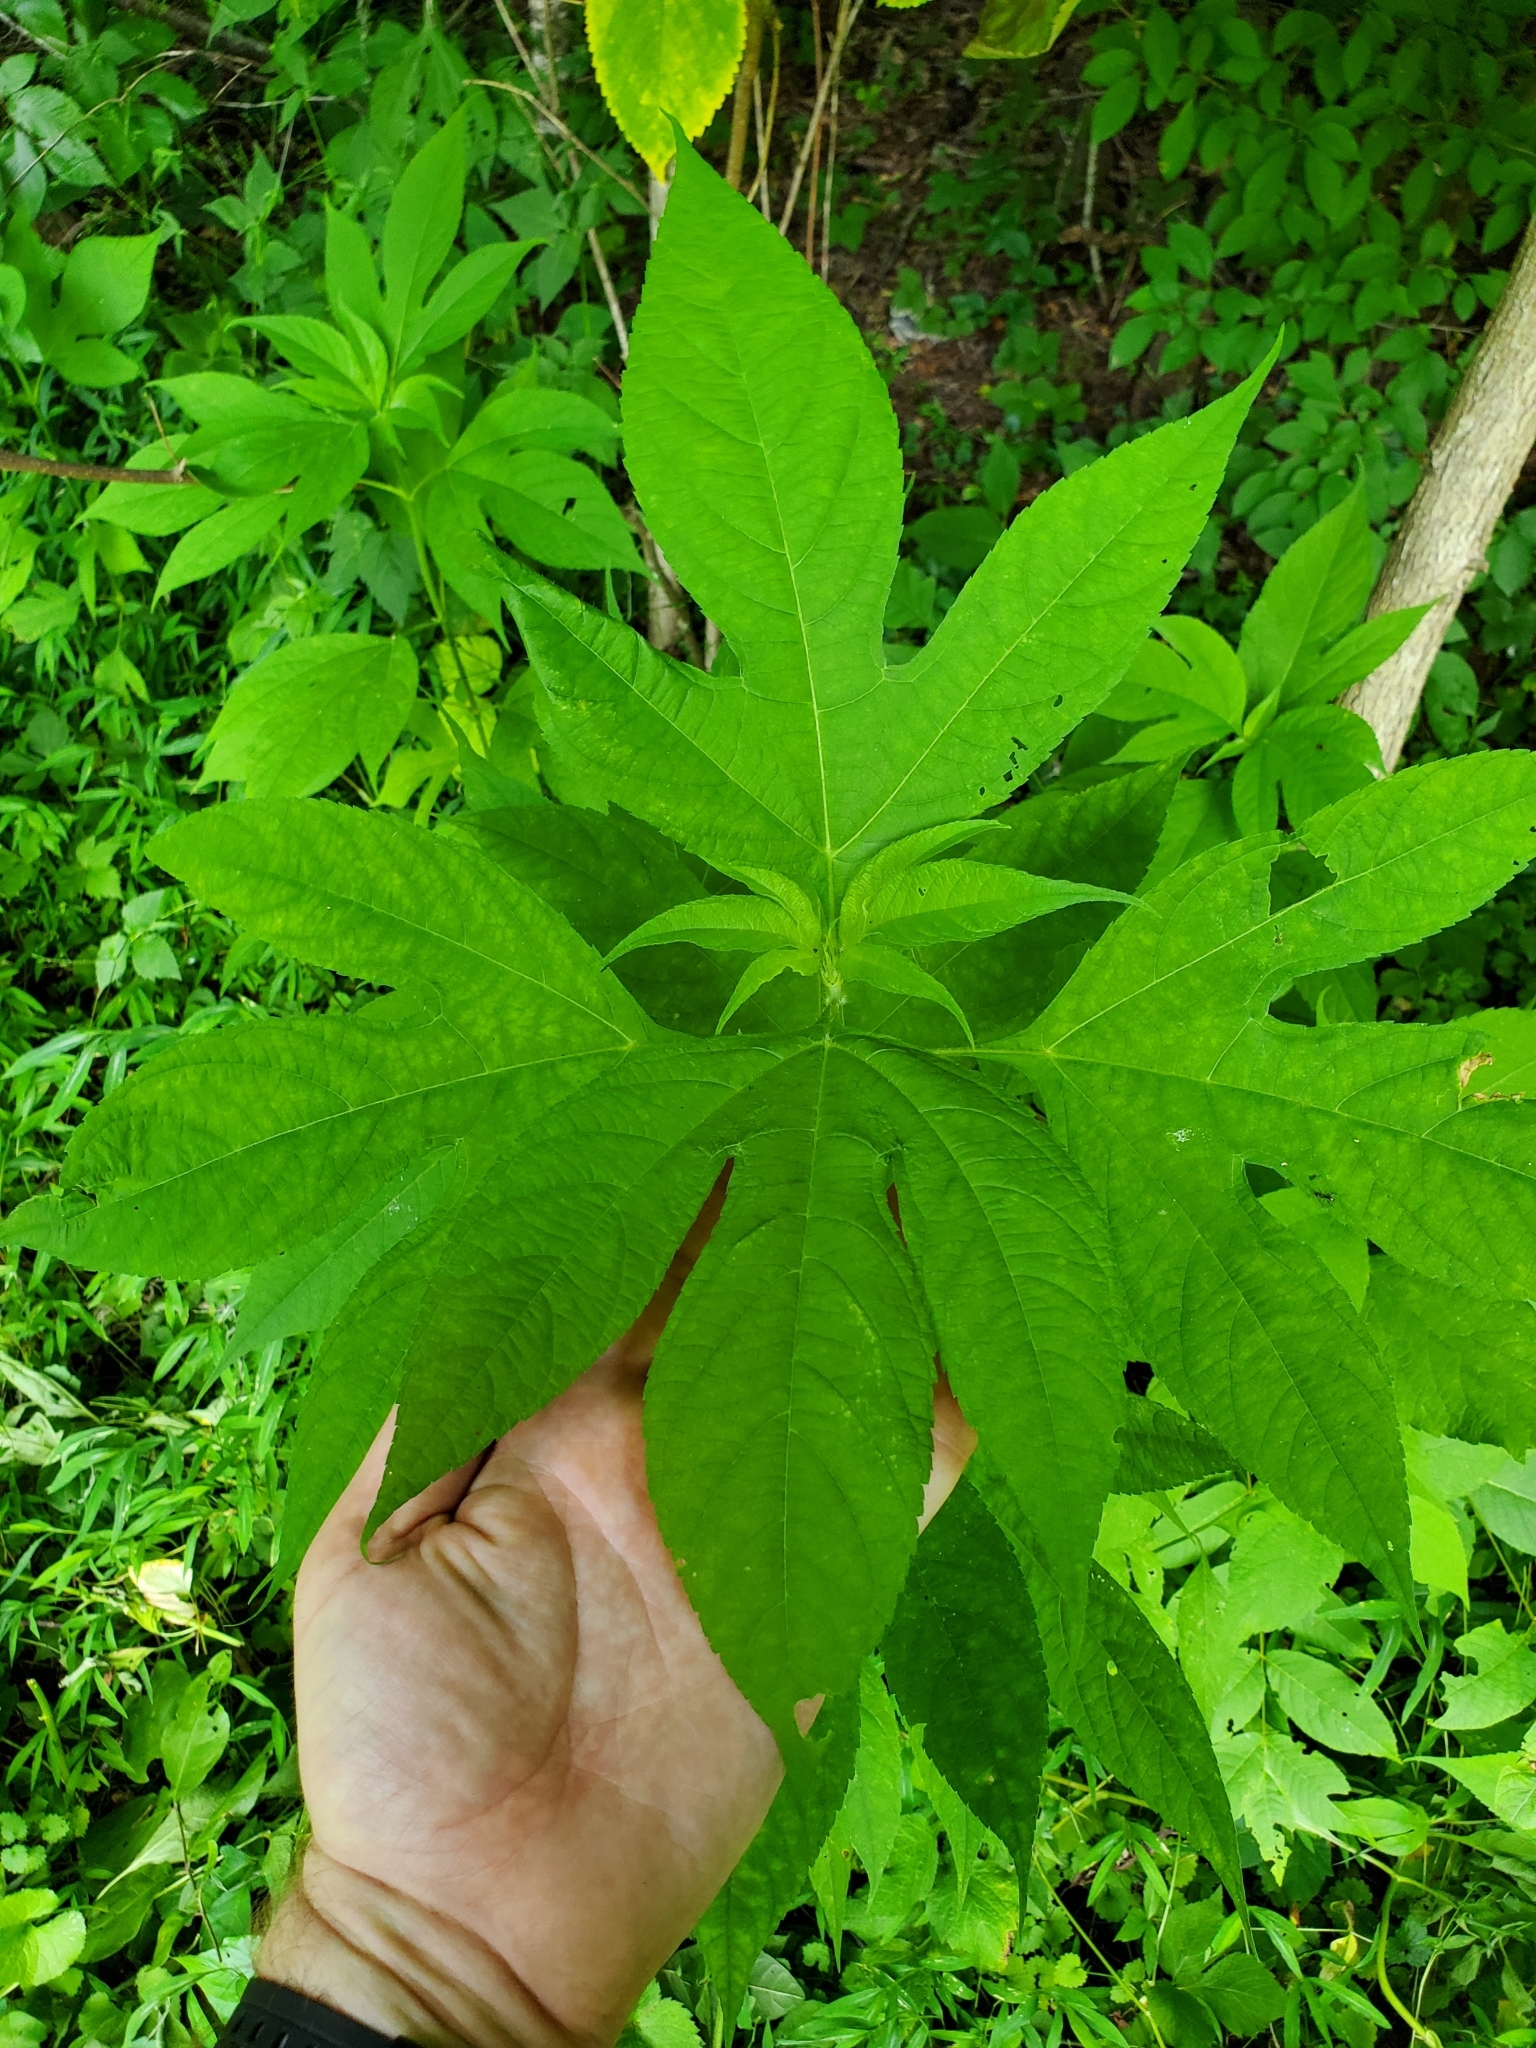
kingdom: Plantae
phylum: Tracheophyta
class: Magnoliopsida
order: Asterales
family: Asteraceae
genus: Ambrosia
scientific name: Ambrosia trifida
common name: Giant ragweed
